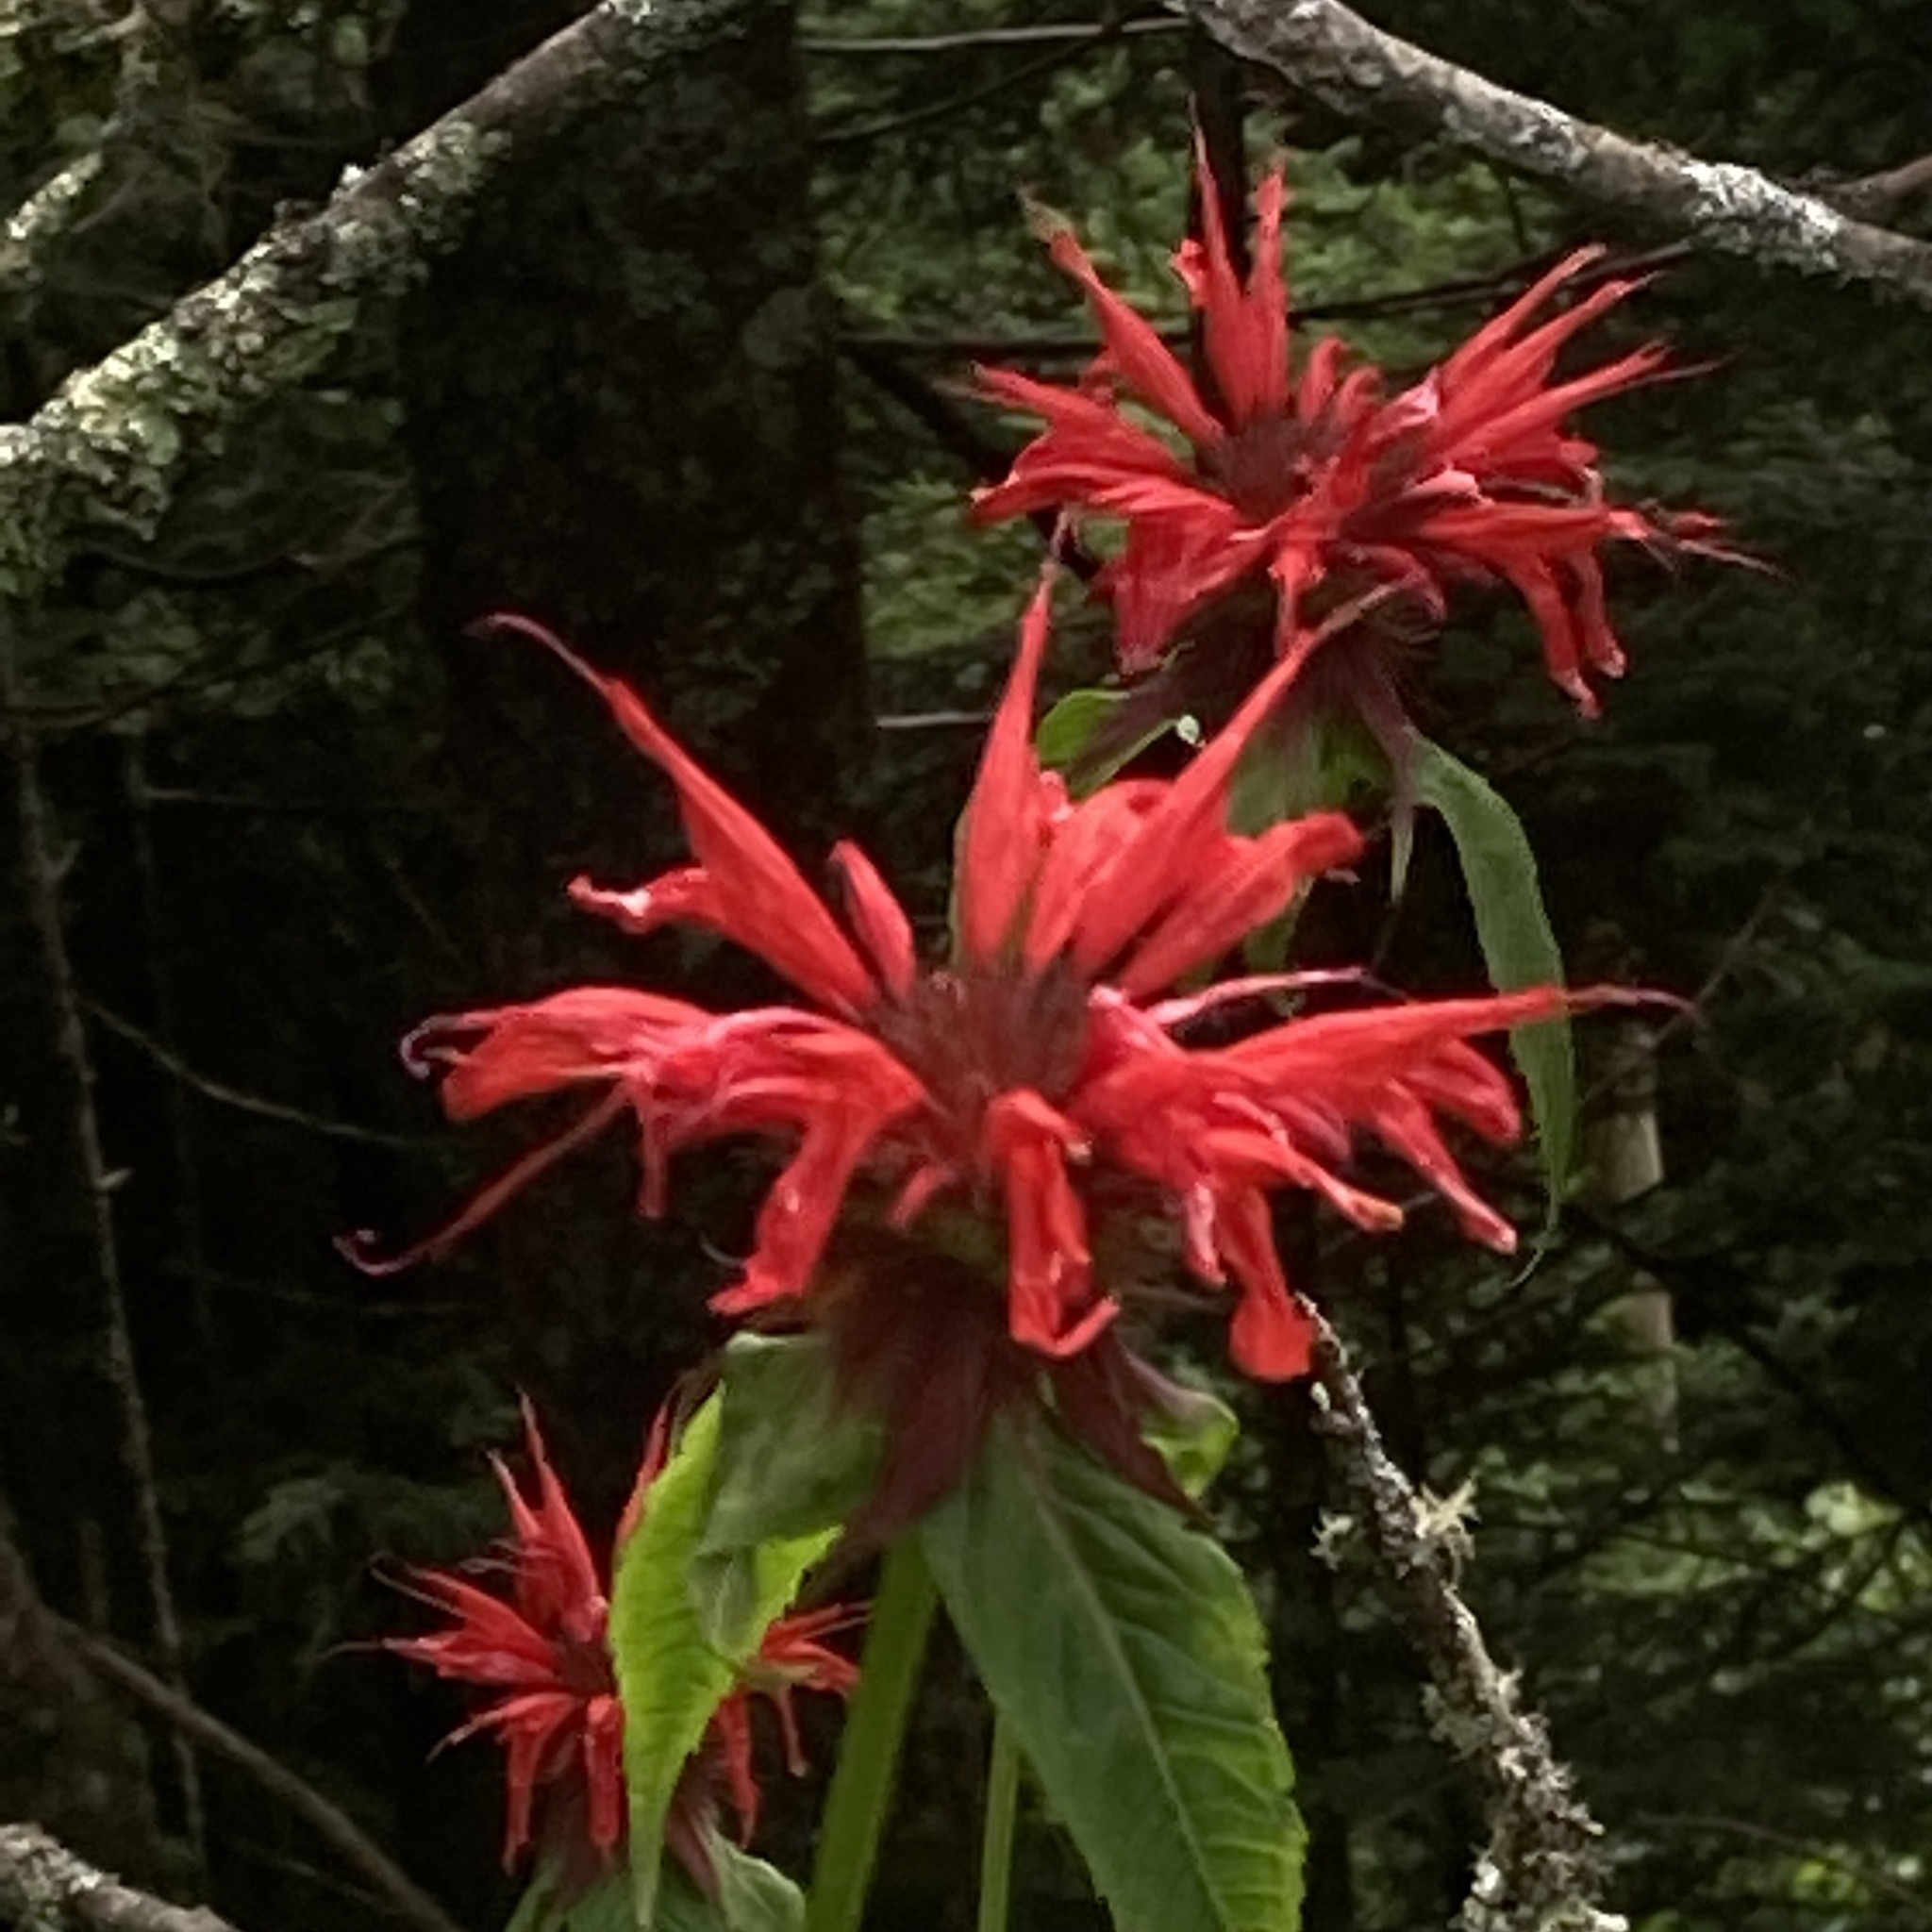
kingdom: Plantae
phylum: Tracheophyta
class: Magnoliopsida
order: Lamiales
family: Lamiaceae
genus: Monarda
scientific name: Monarda didyma
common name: Beebalm
